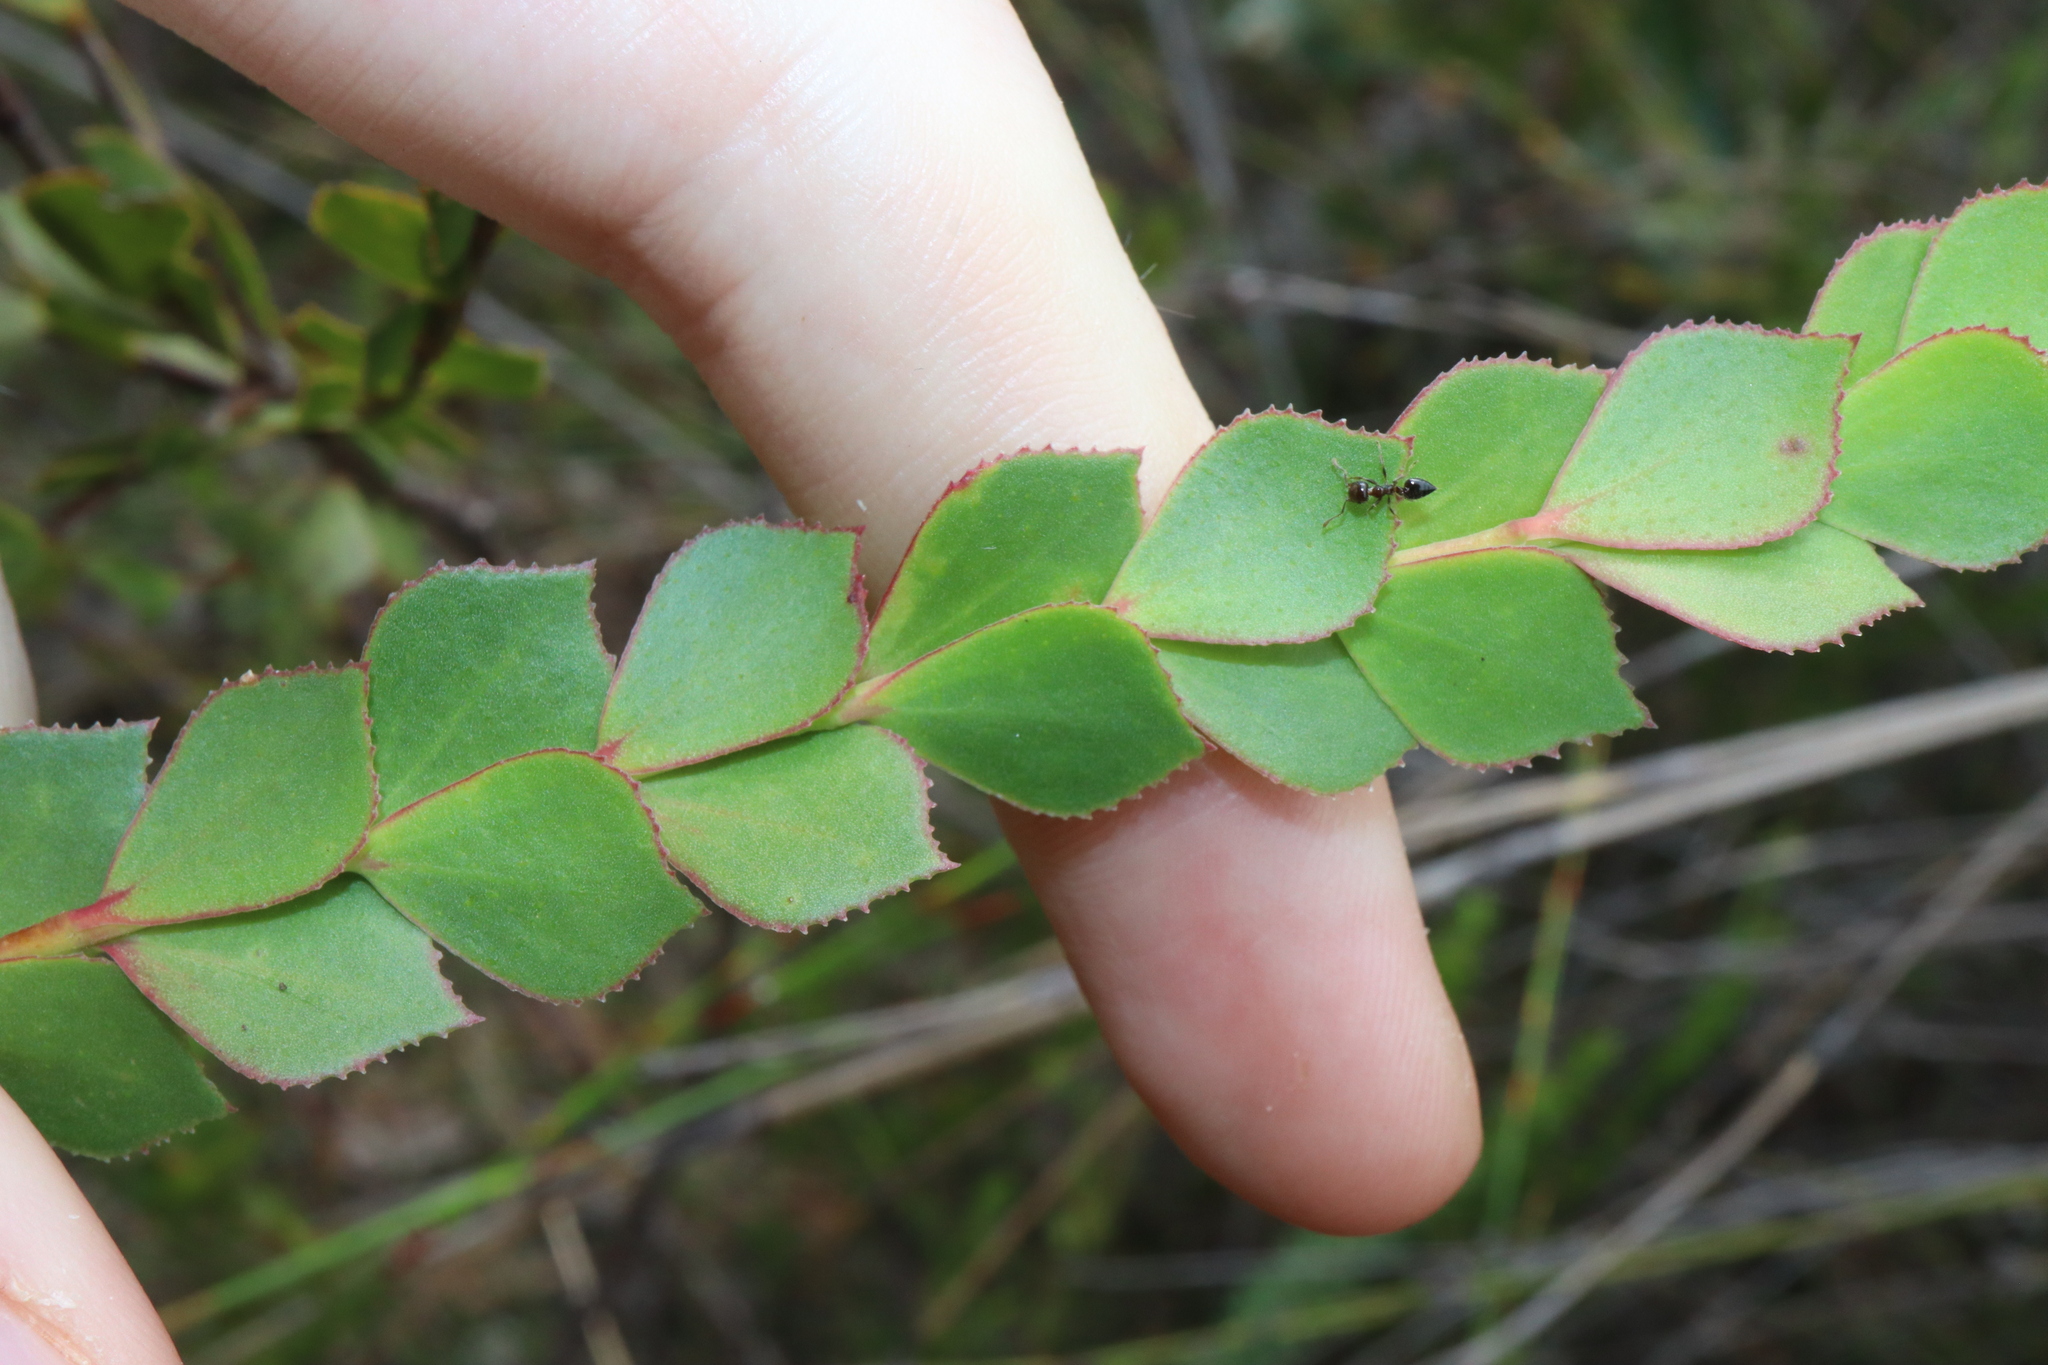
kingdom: Plantae
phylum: Tracheophyta
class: Magnoliopsida
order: Sapindales
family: Rutaceae
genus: Boronia
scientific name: Boronia serrulata
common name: Rose boronia
